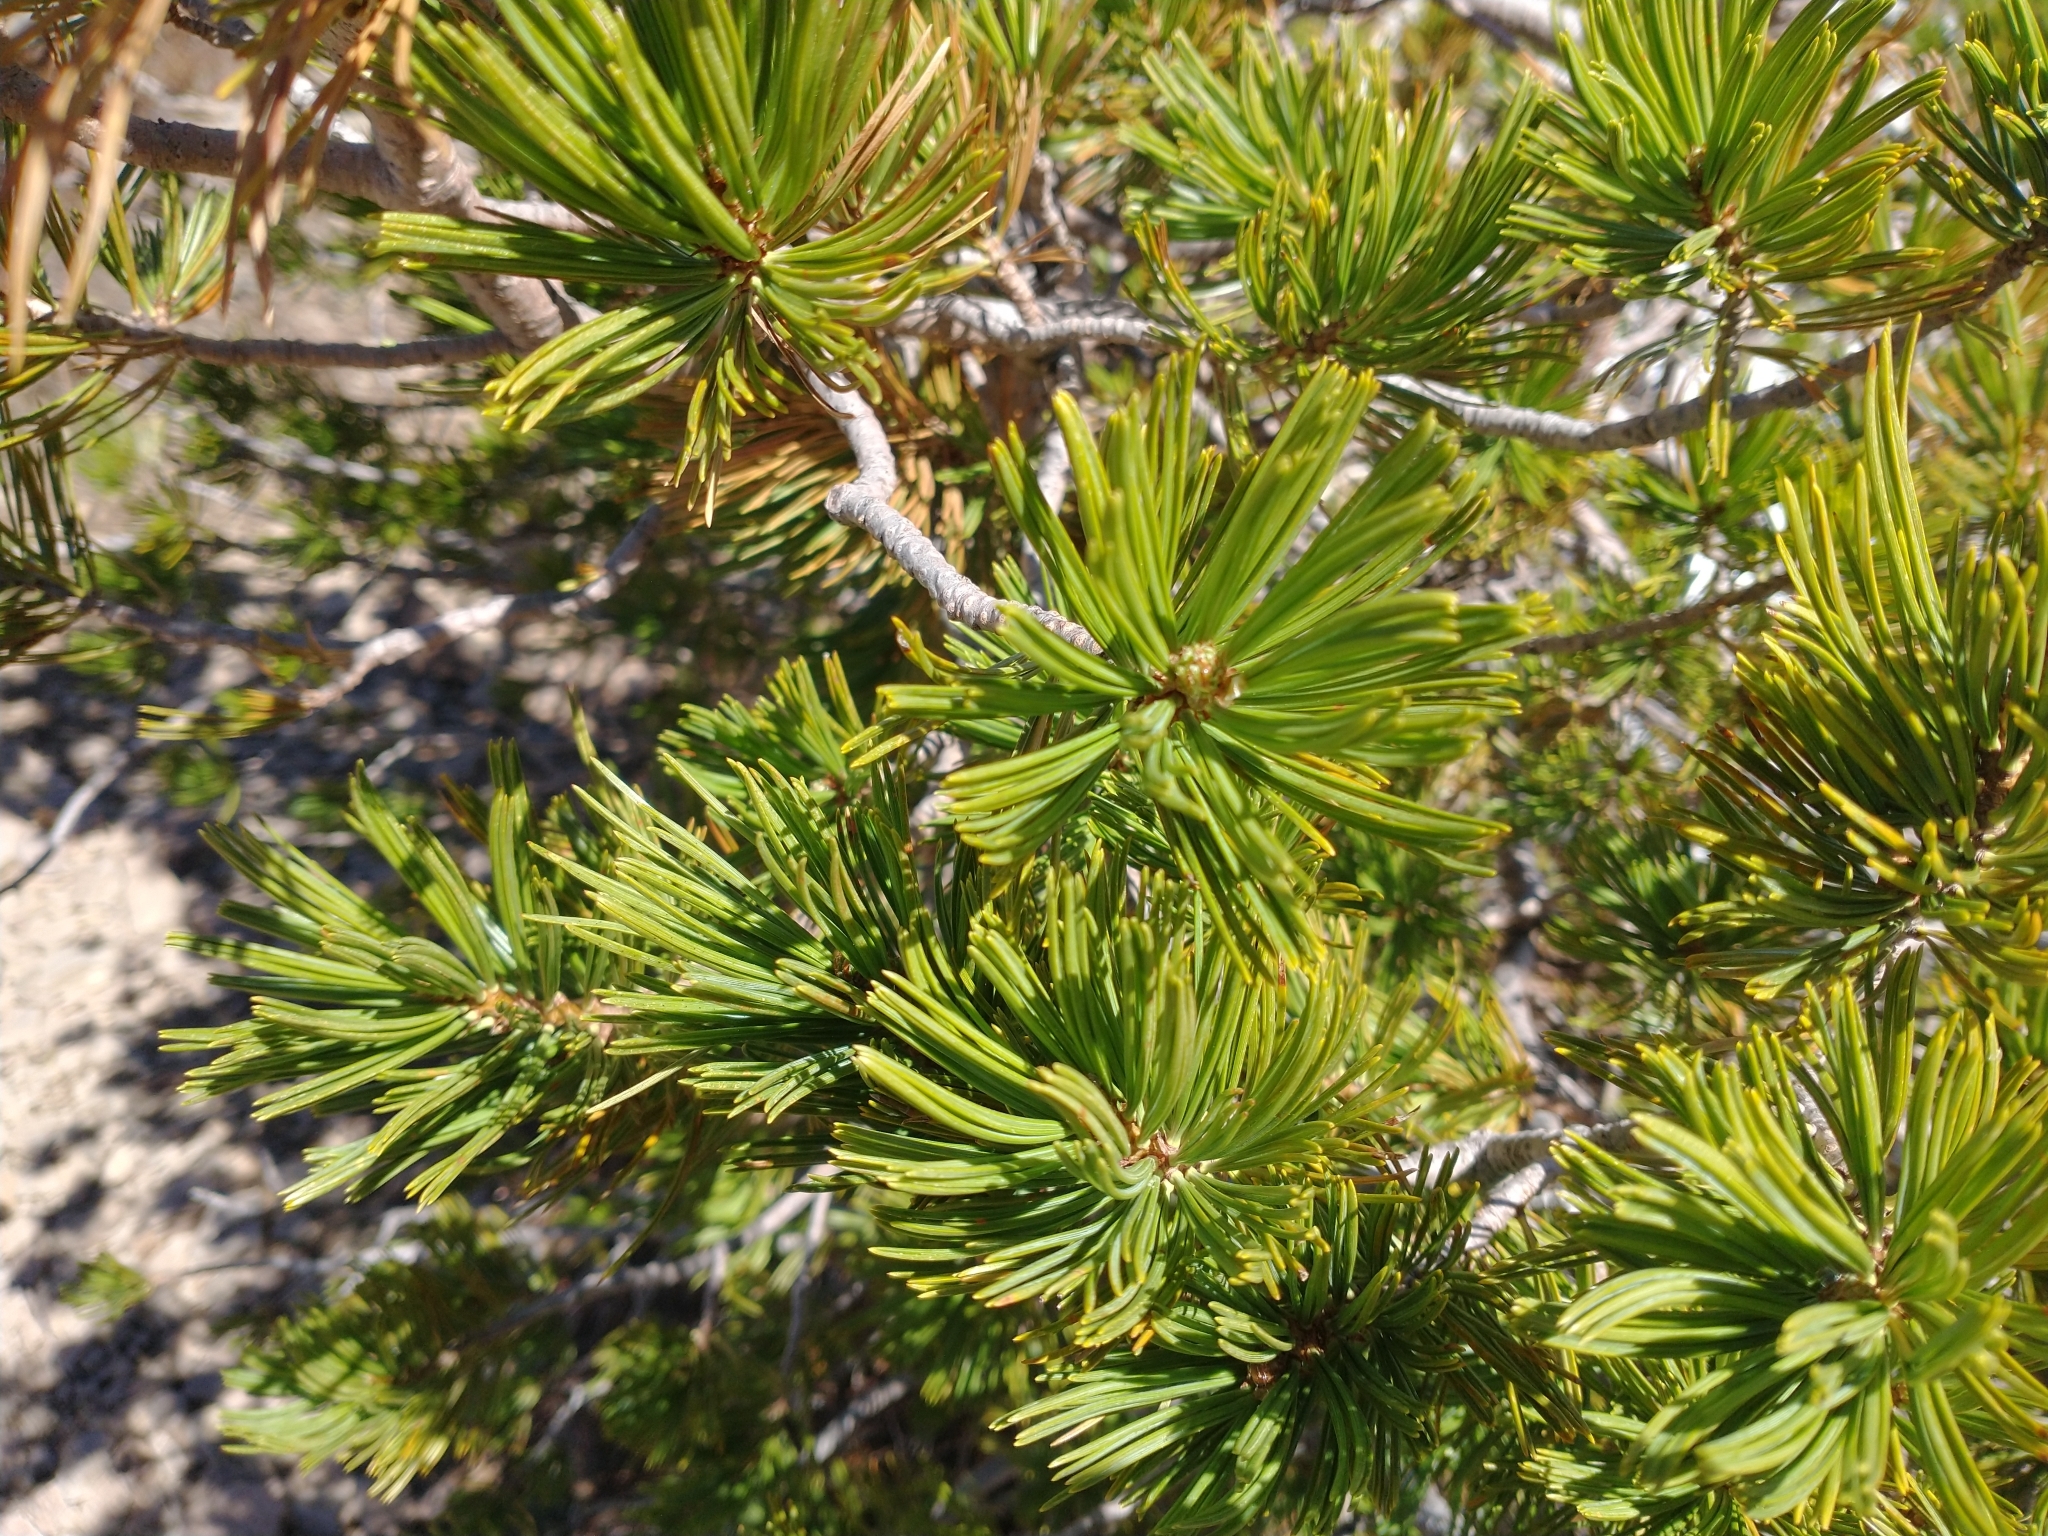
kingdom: Plantae
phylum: Tracheophyta
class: Pinopsida
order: Pinales
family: Pinaceae
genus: Pinus
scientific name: Pinus albicaulis
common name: Whitebark pine
